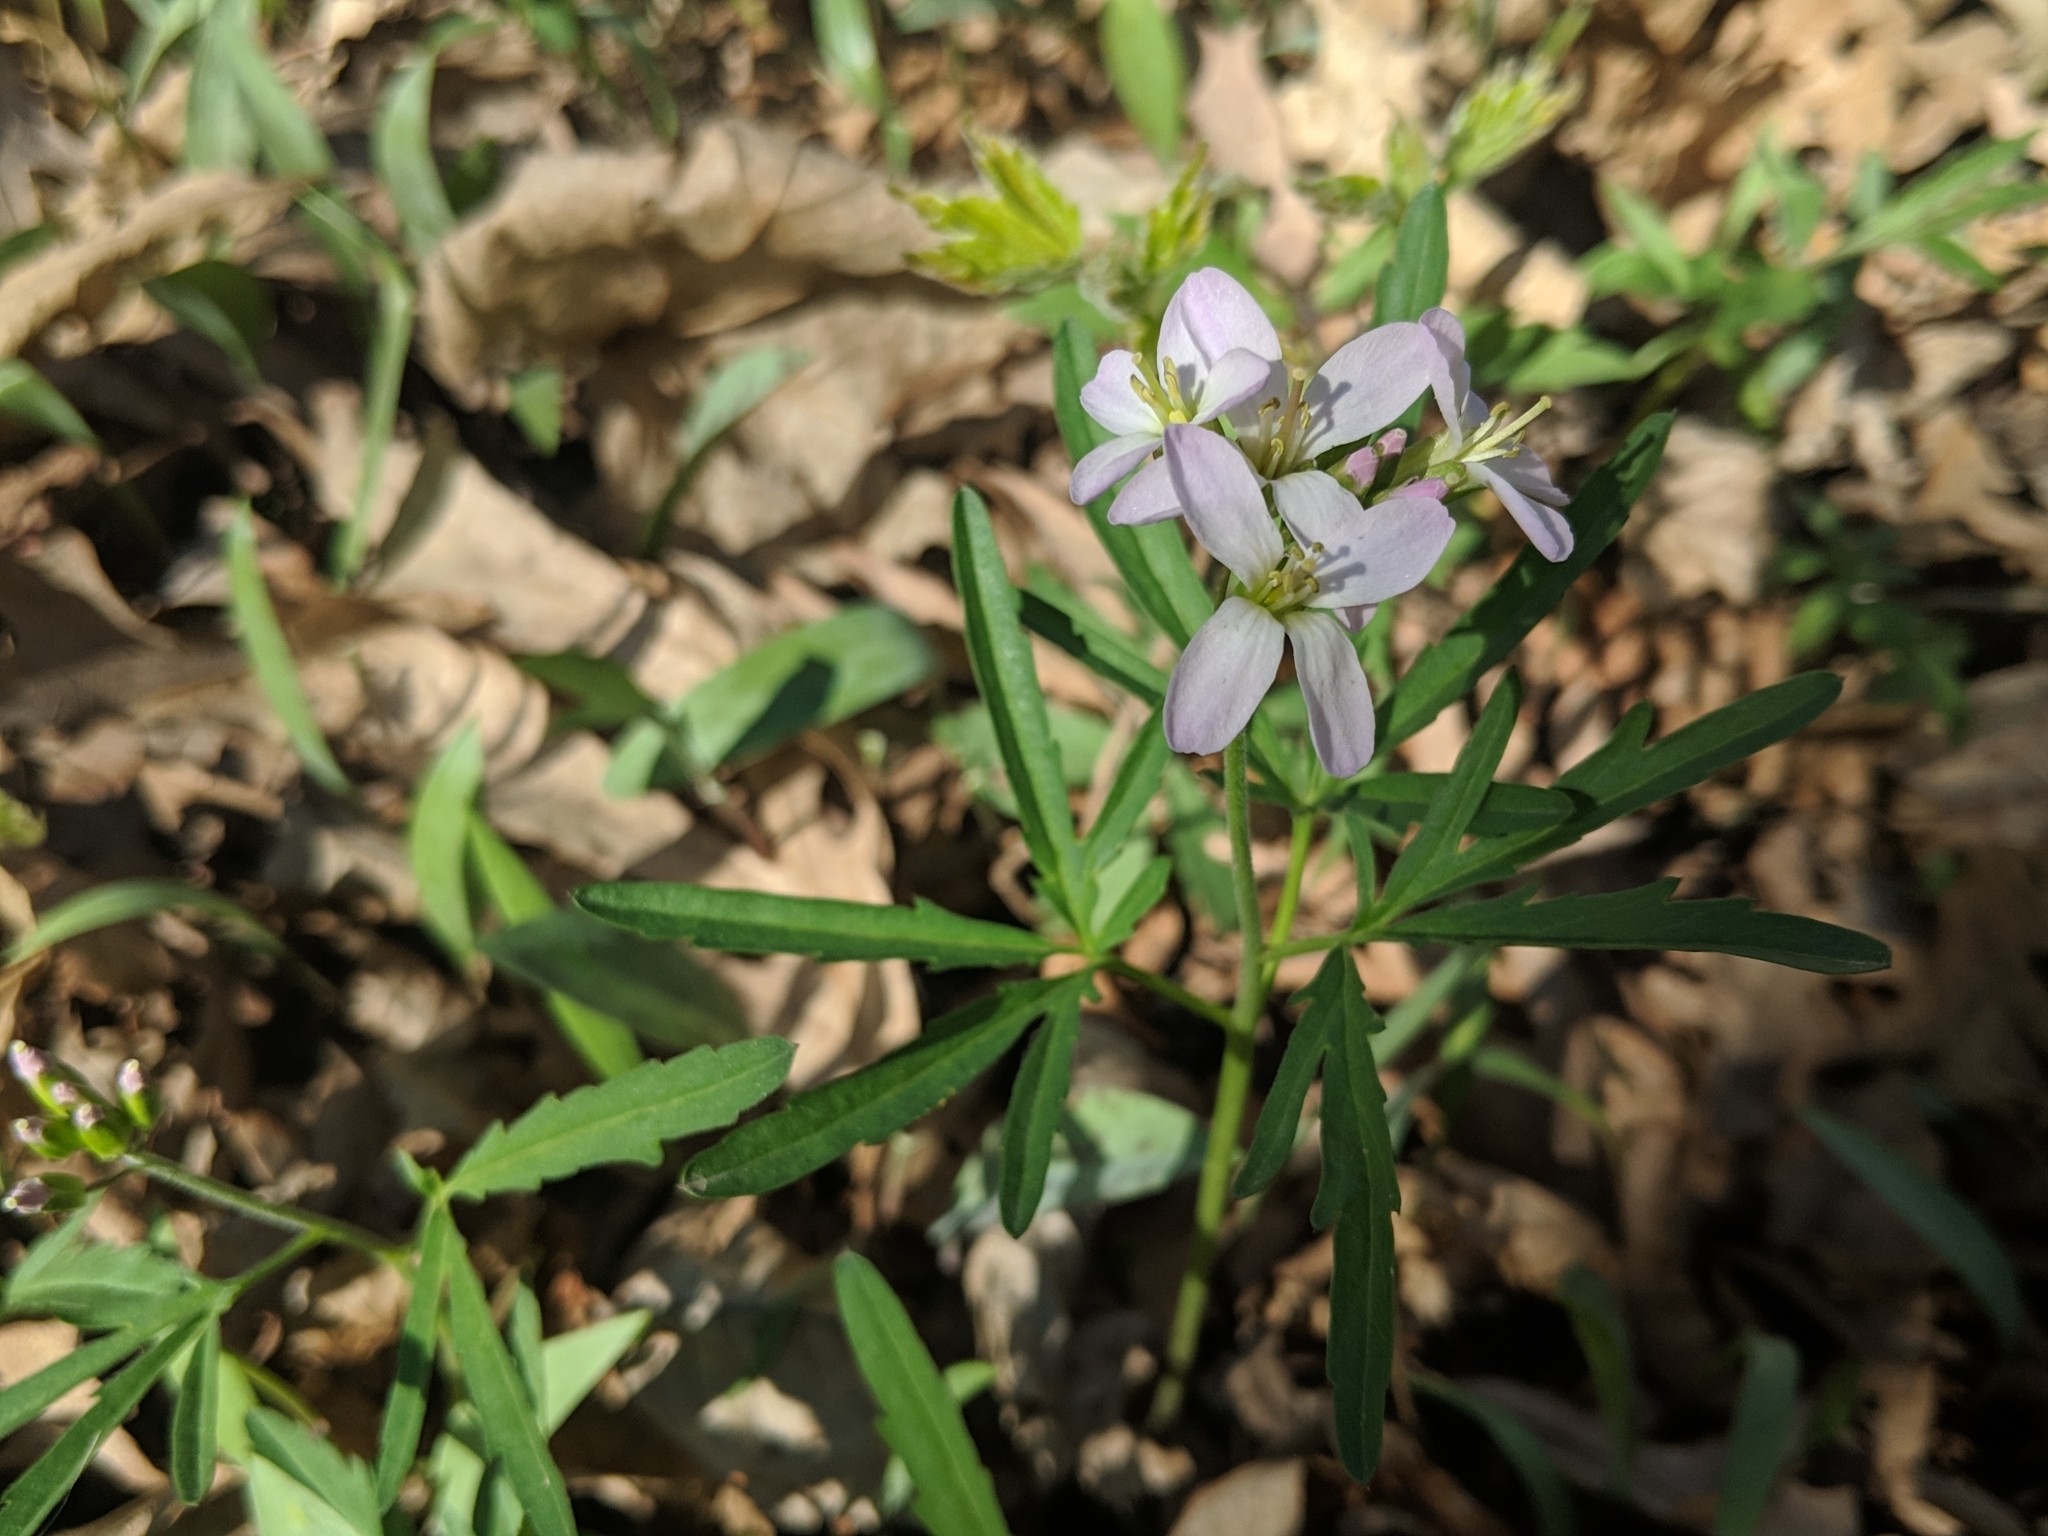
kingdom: Plantae
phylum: Tracheophyta
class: Magnoliopsida
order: Brassicales
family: Brassicaceae
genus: Cardamine
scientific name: Cardamine concatenata
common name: Cut-leaf toothcup
